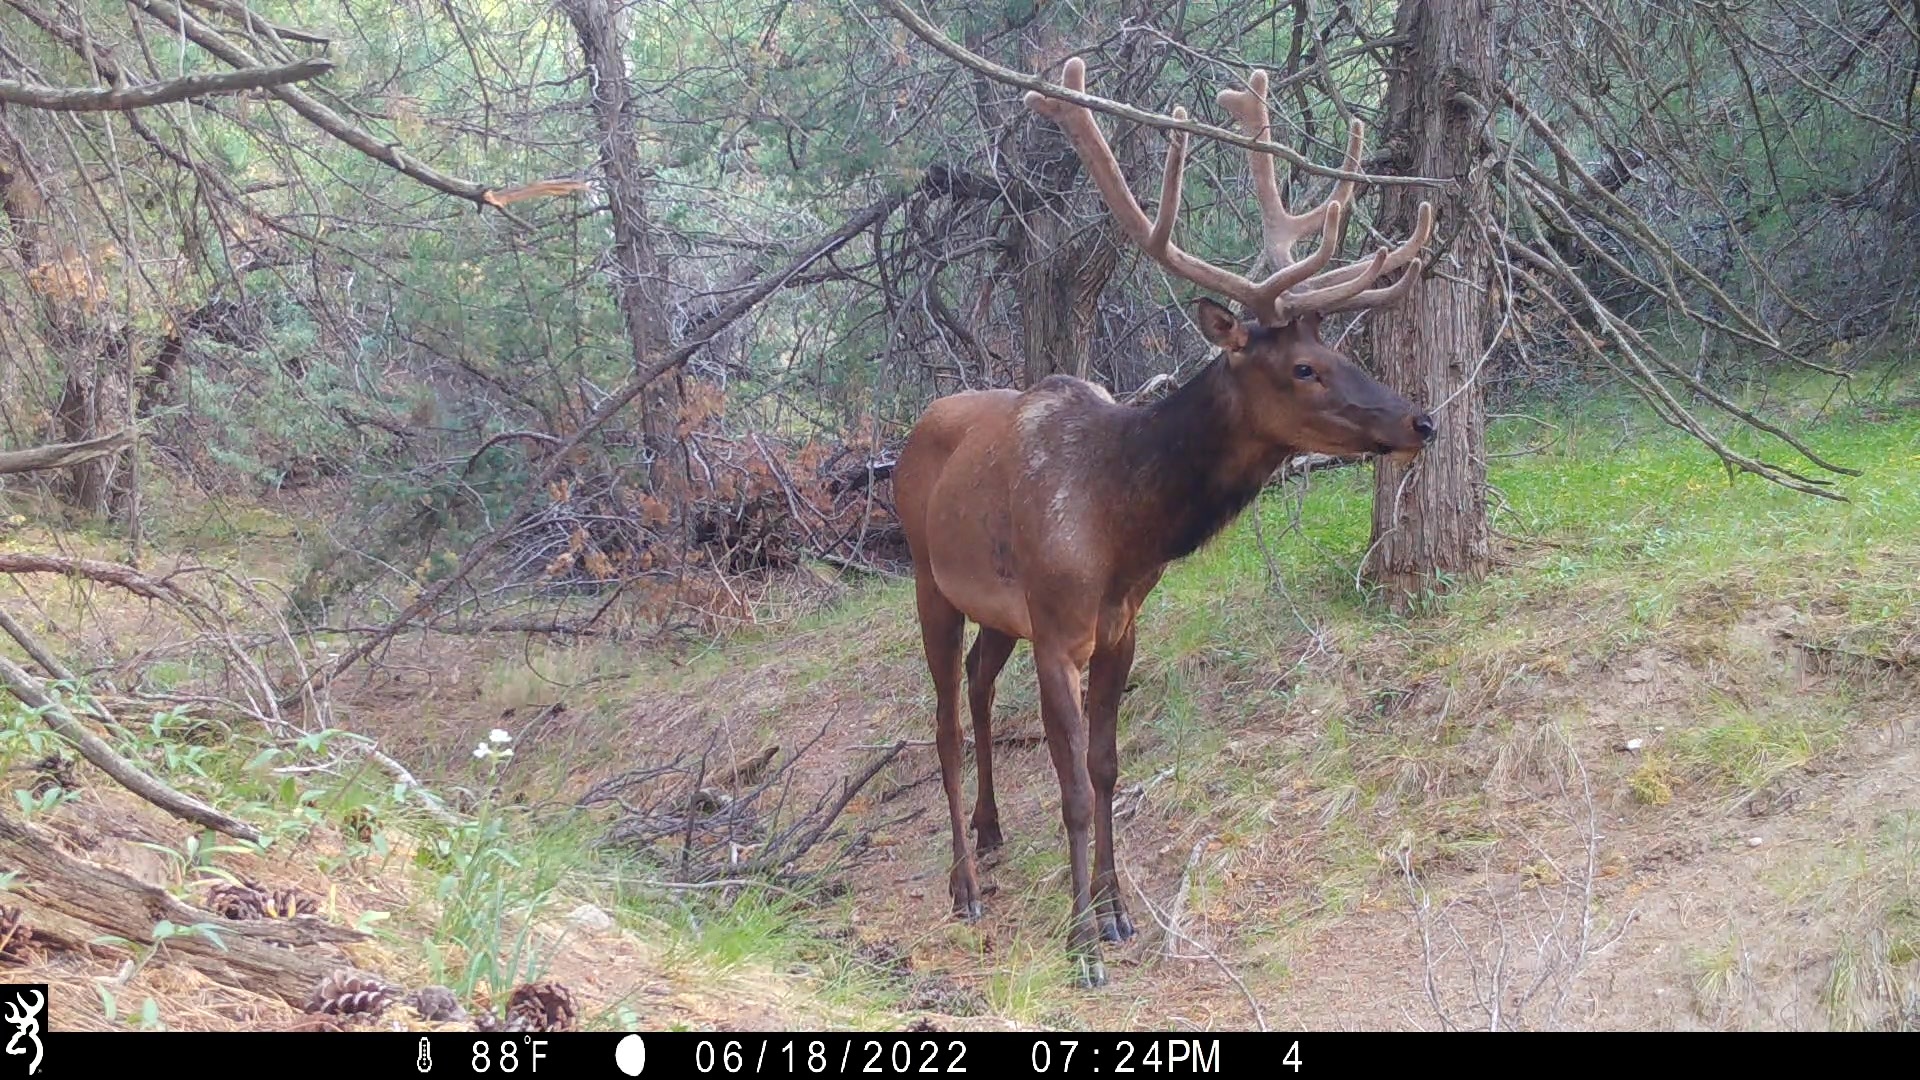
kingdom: Animalia
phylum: Chordata
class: Mammalia
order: Artiodactyla
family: Cervidae
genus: Cervus
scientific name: Cervus elaphus
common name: Red deer
